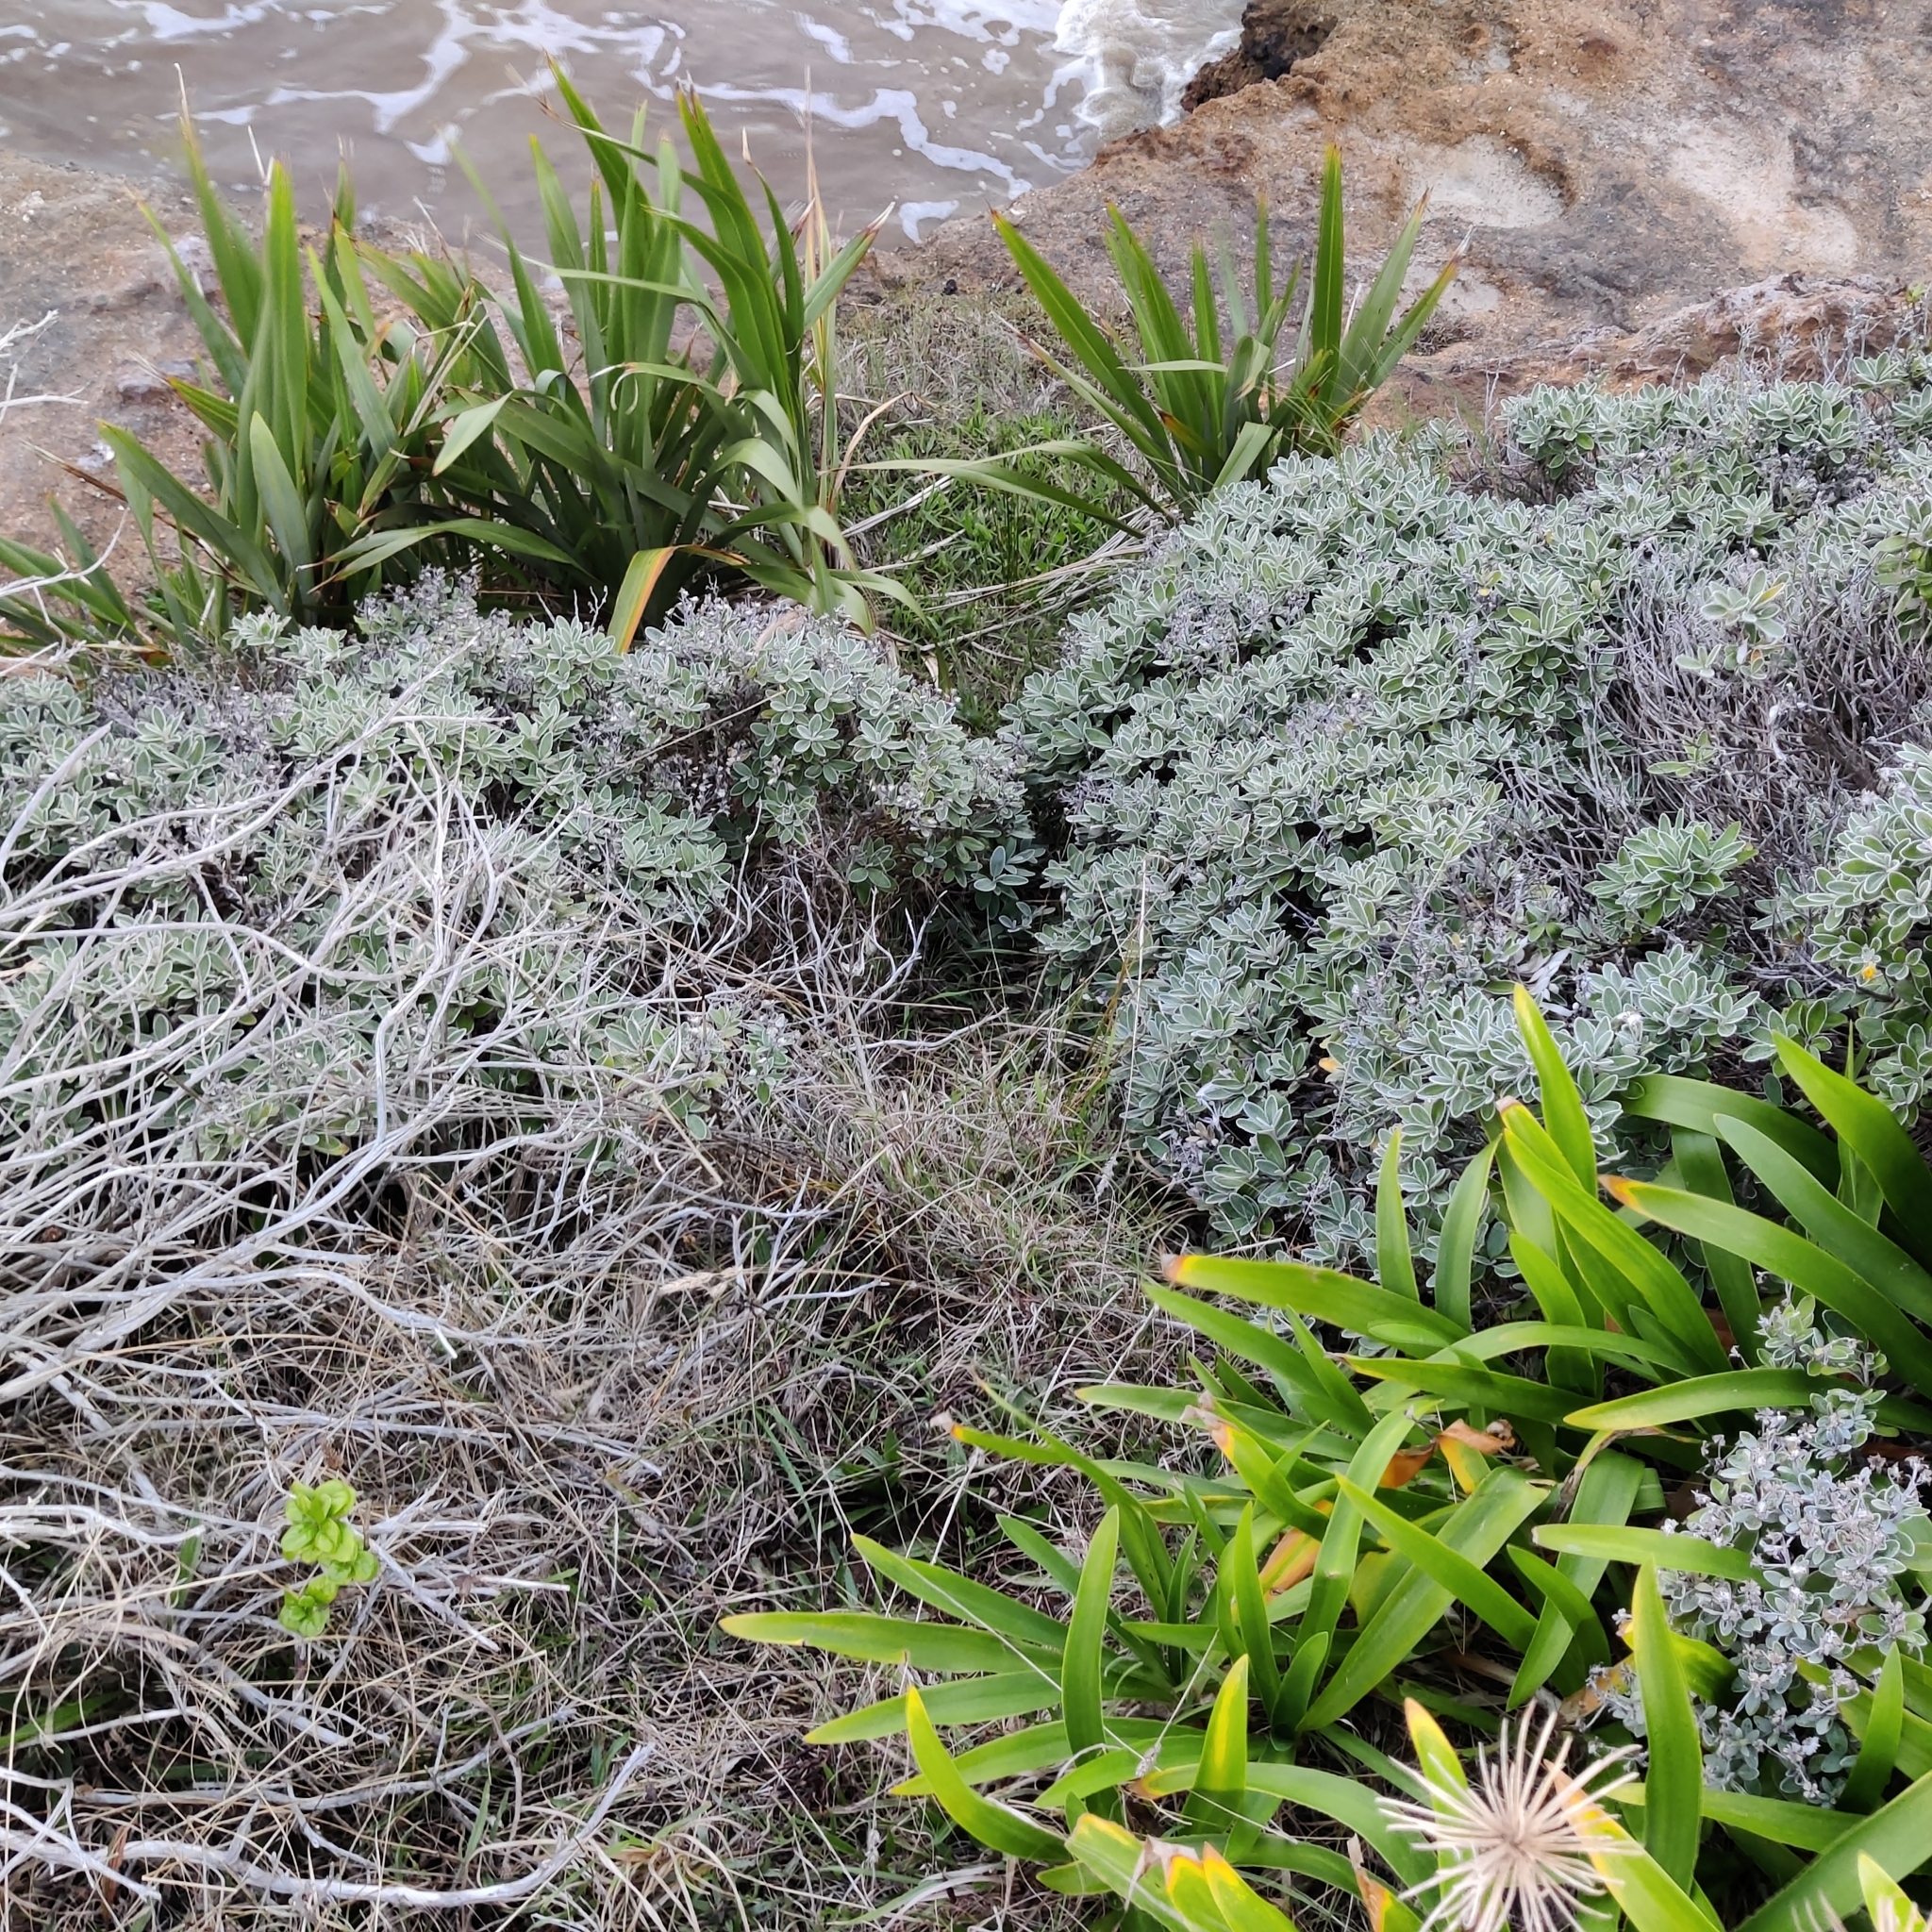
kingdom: Plantae
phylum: Tracheophyta
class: Magnoliopsida
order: Asterales
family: Asteraceae
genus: Brachyglottis
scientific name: Brachyglottis greyi
